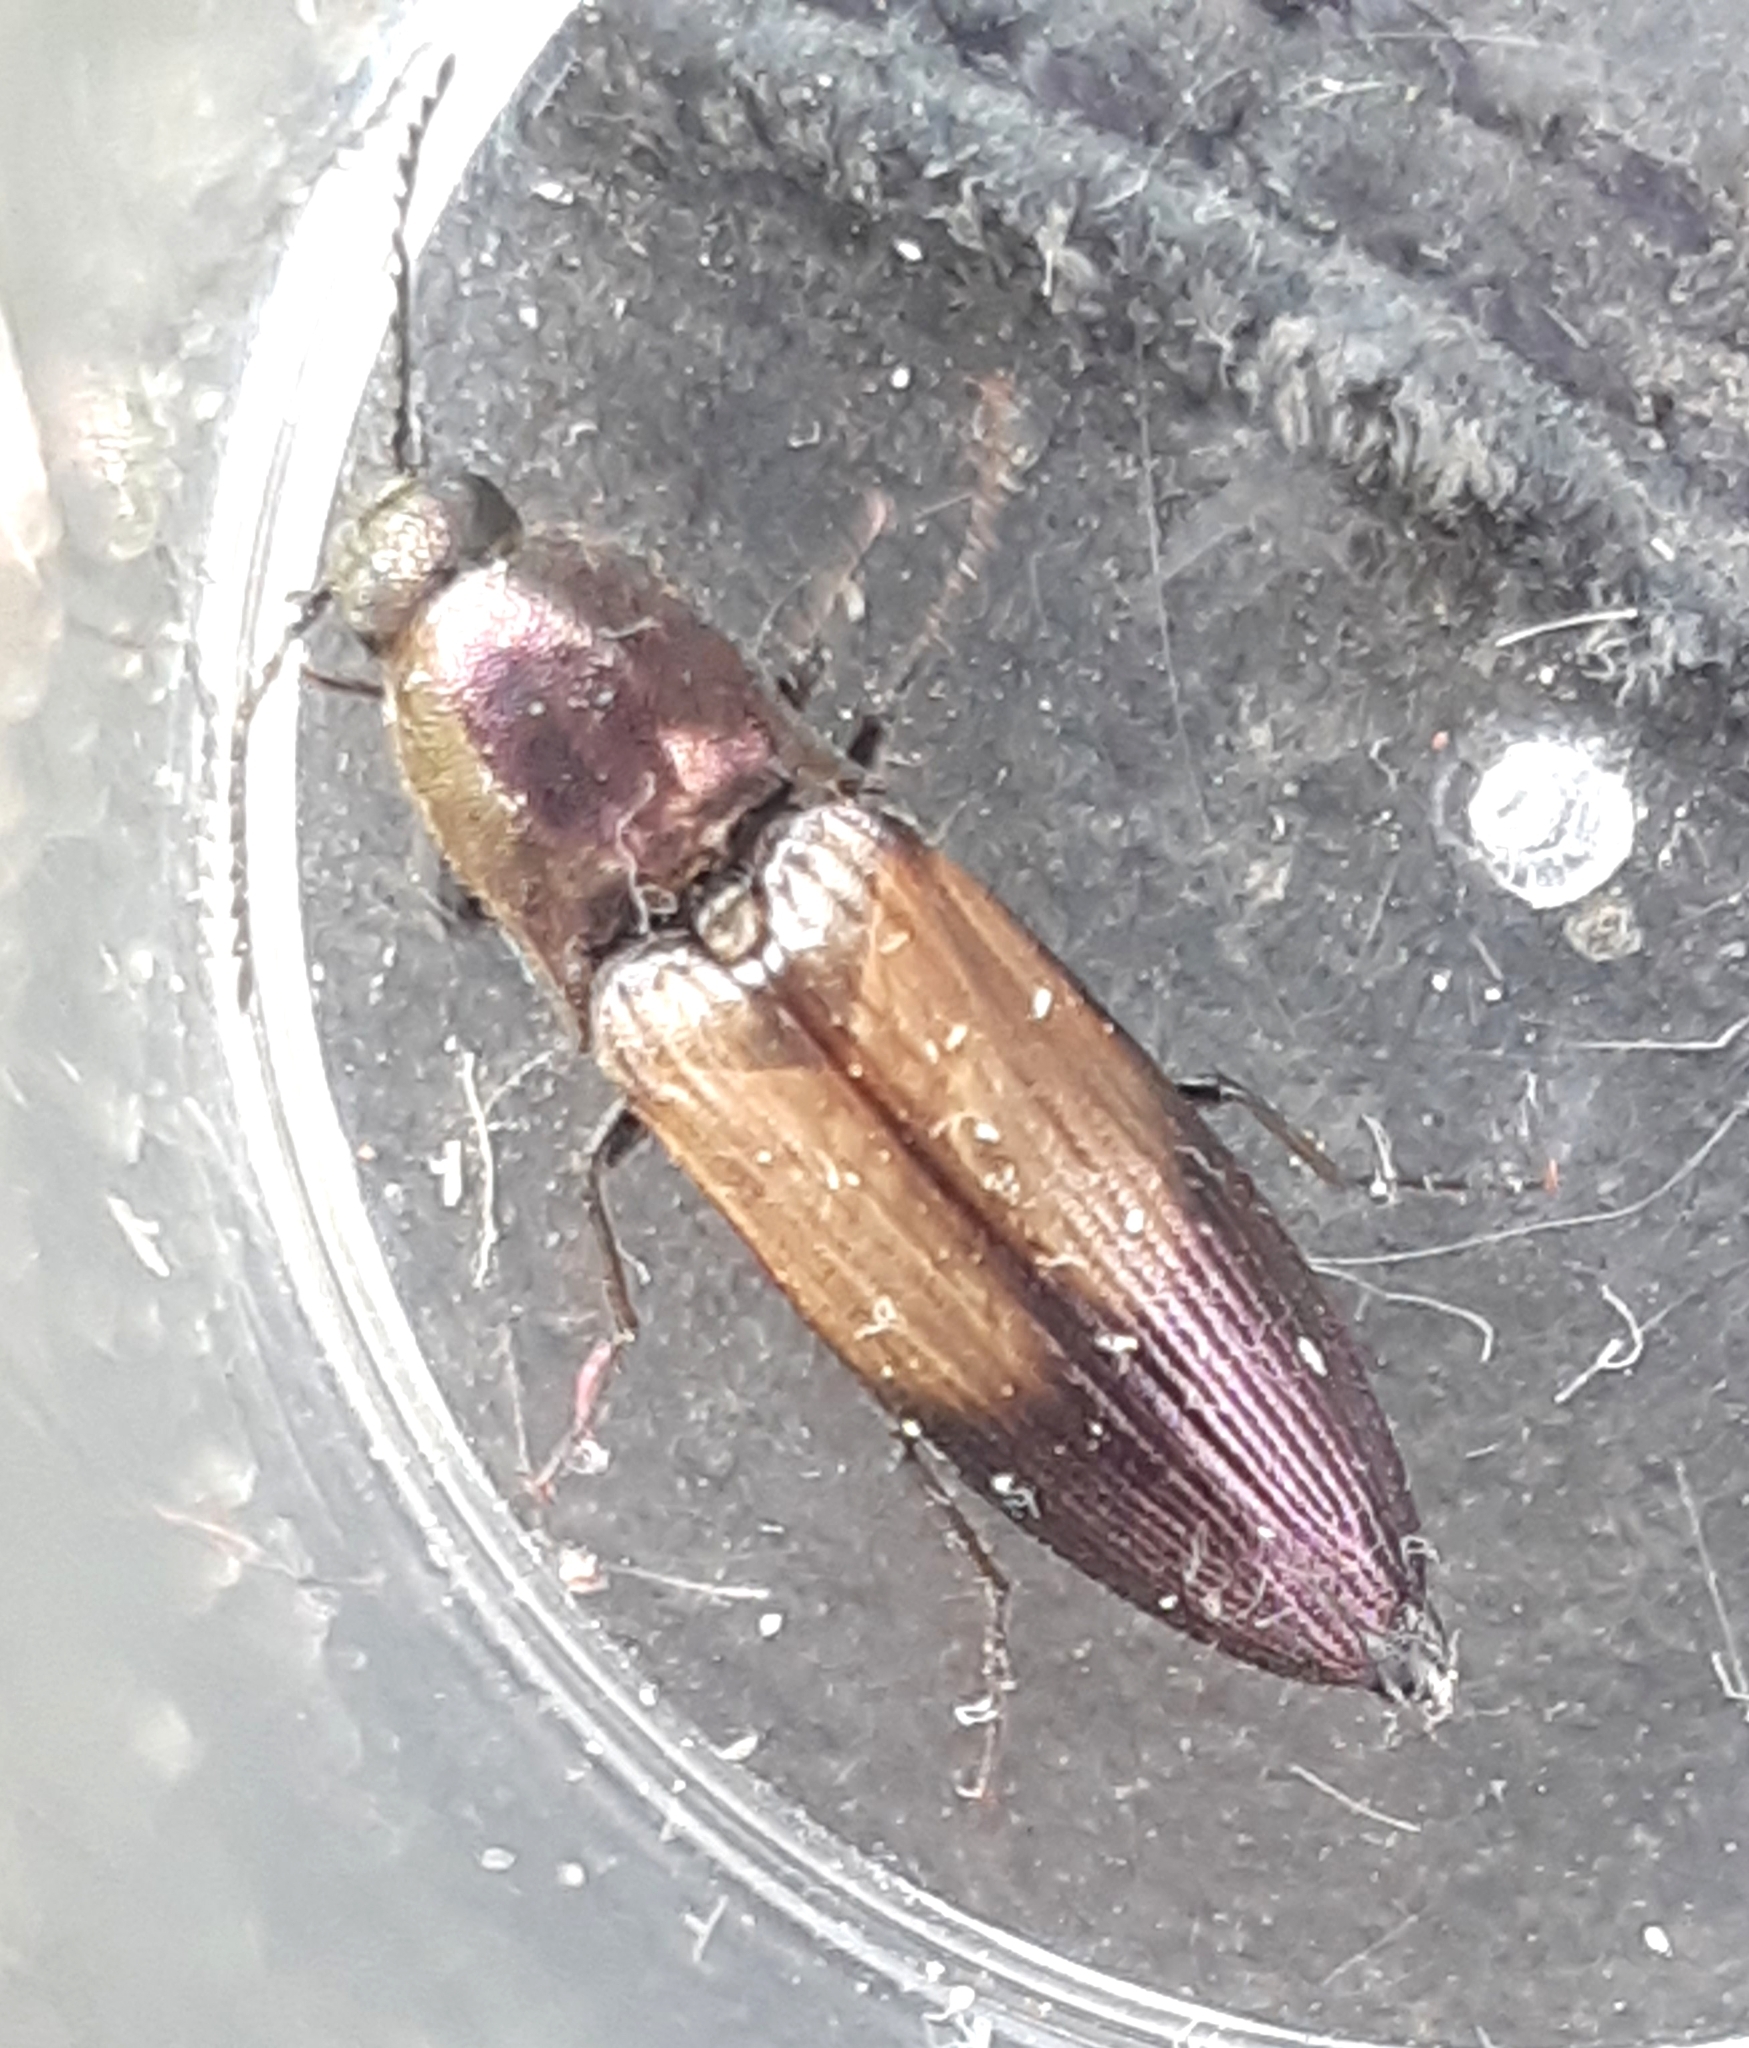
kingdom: Animalia
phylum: Arthropoda
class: Insecta
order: Coleoptera
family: Elateridae
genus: Ctenicera
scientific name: Ctenicera cuprea
